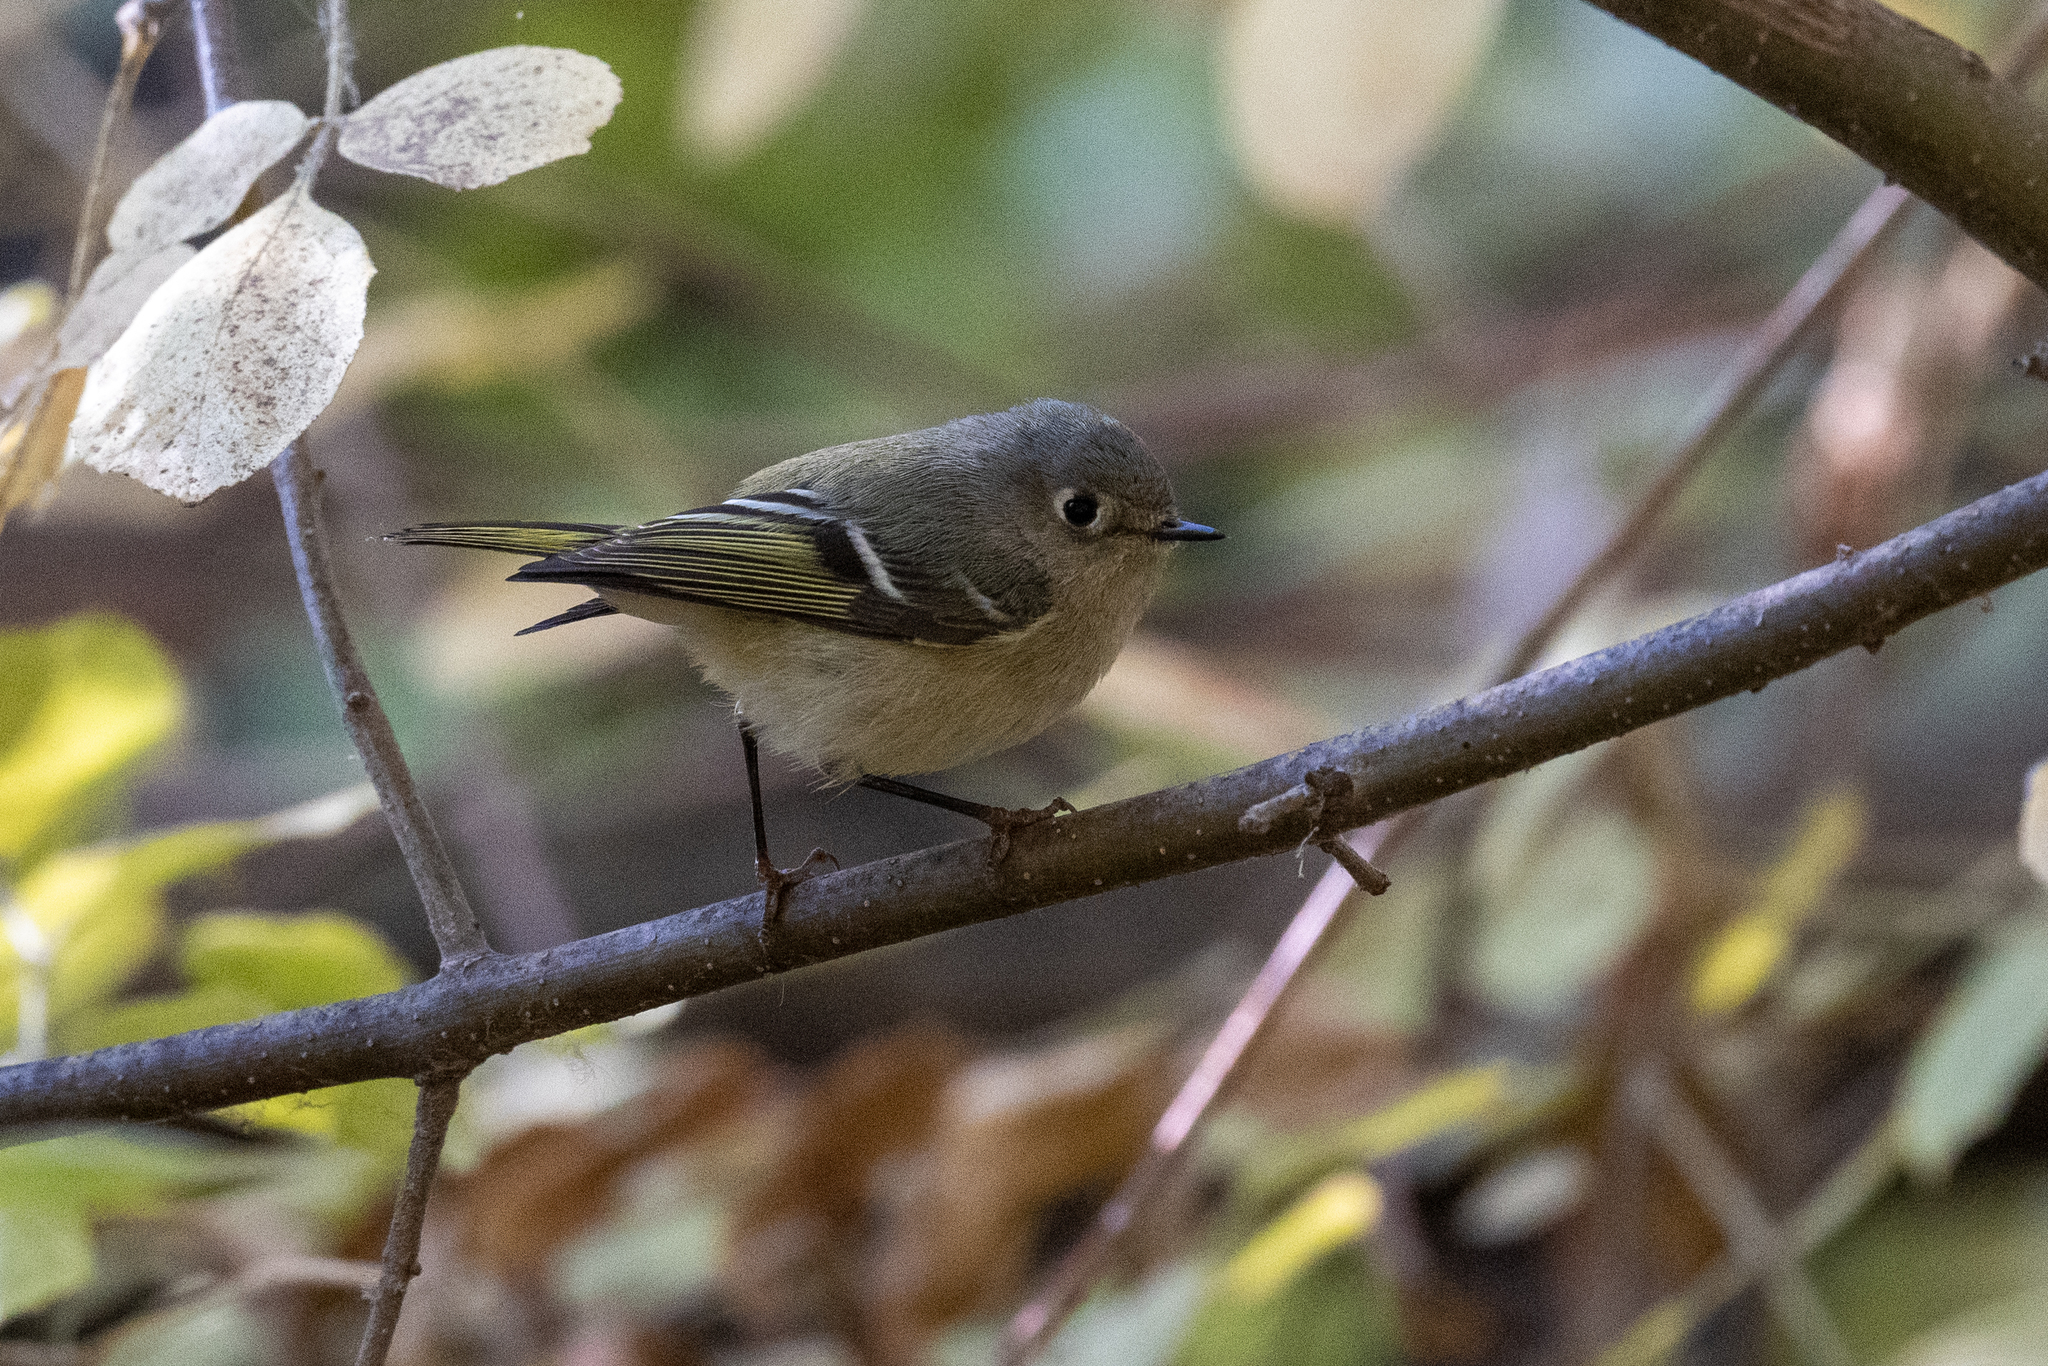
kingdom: Animalia
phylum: Chordata
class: Aves
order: Passeriformes
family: Regulidae
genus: Regulus
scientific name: Regulus calendula
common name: Ruby-crowned kinglet
